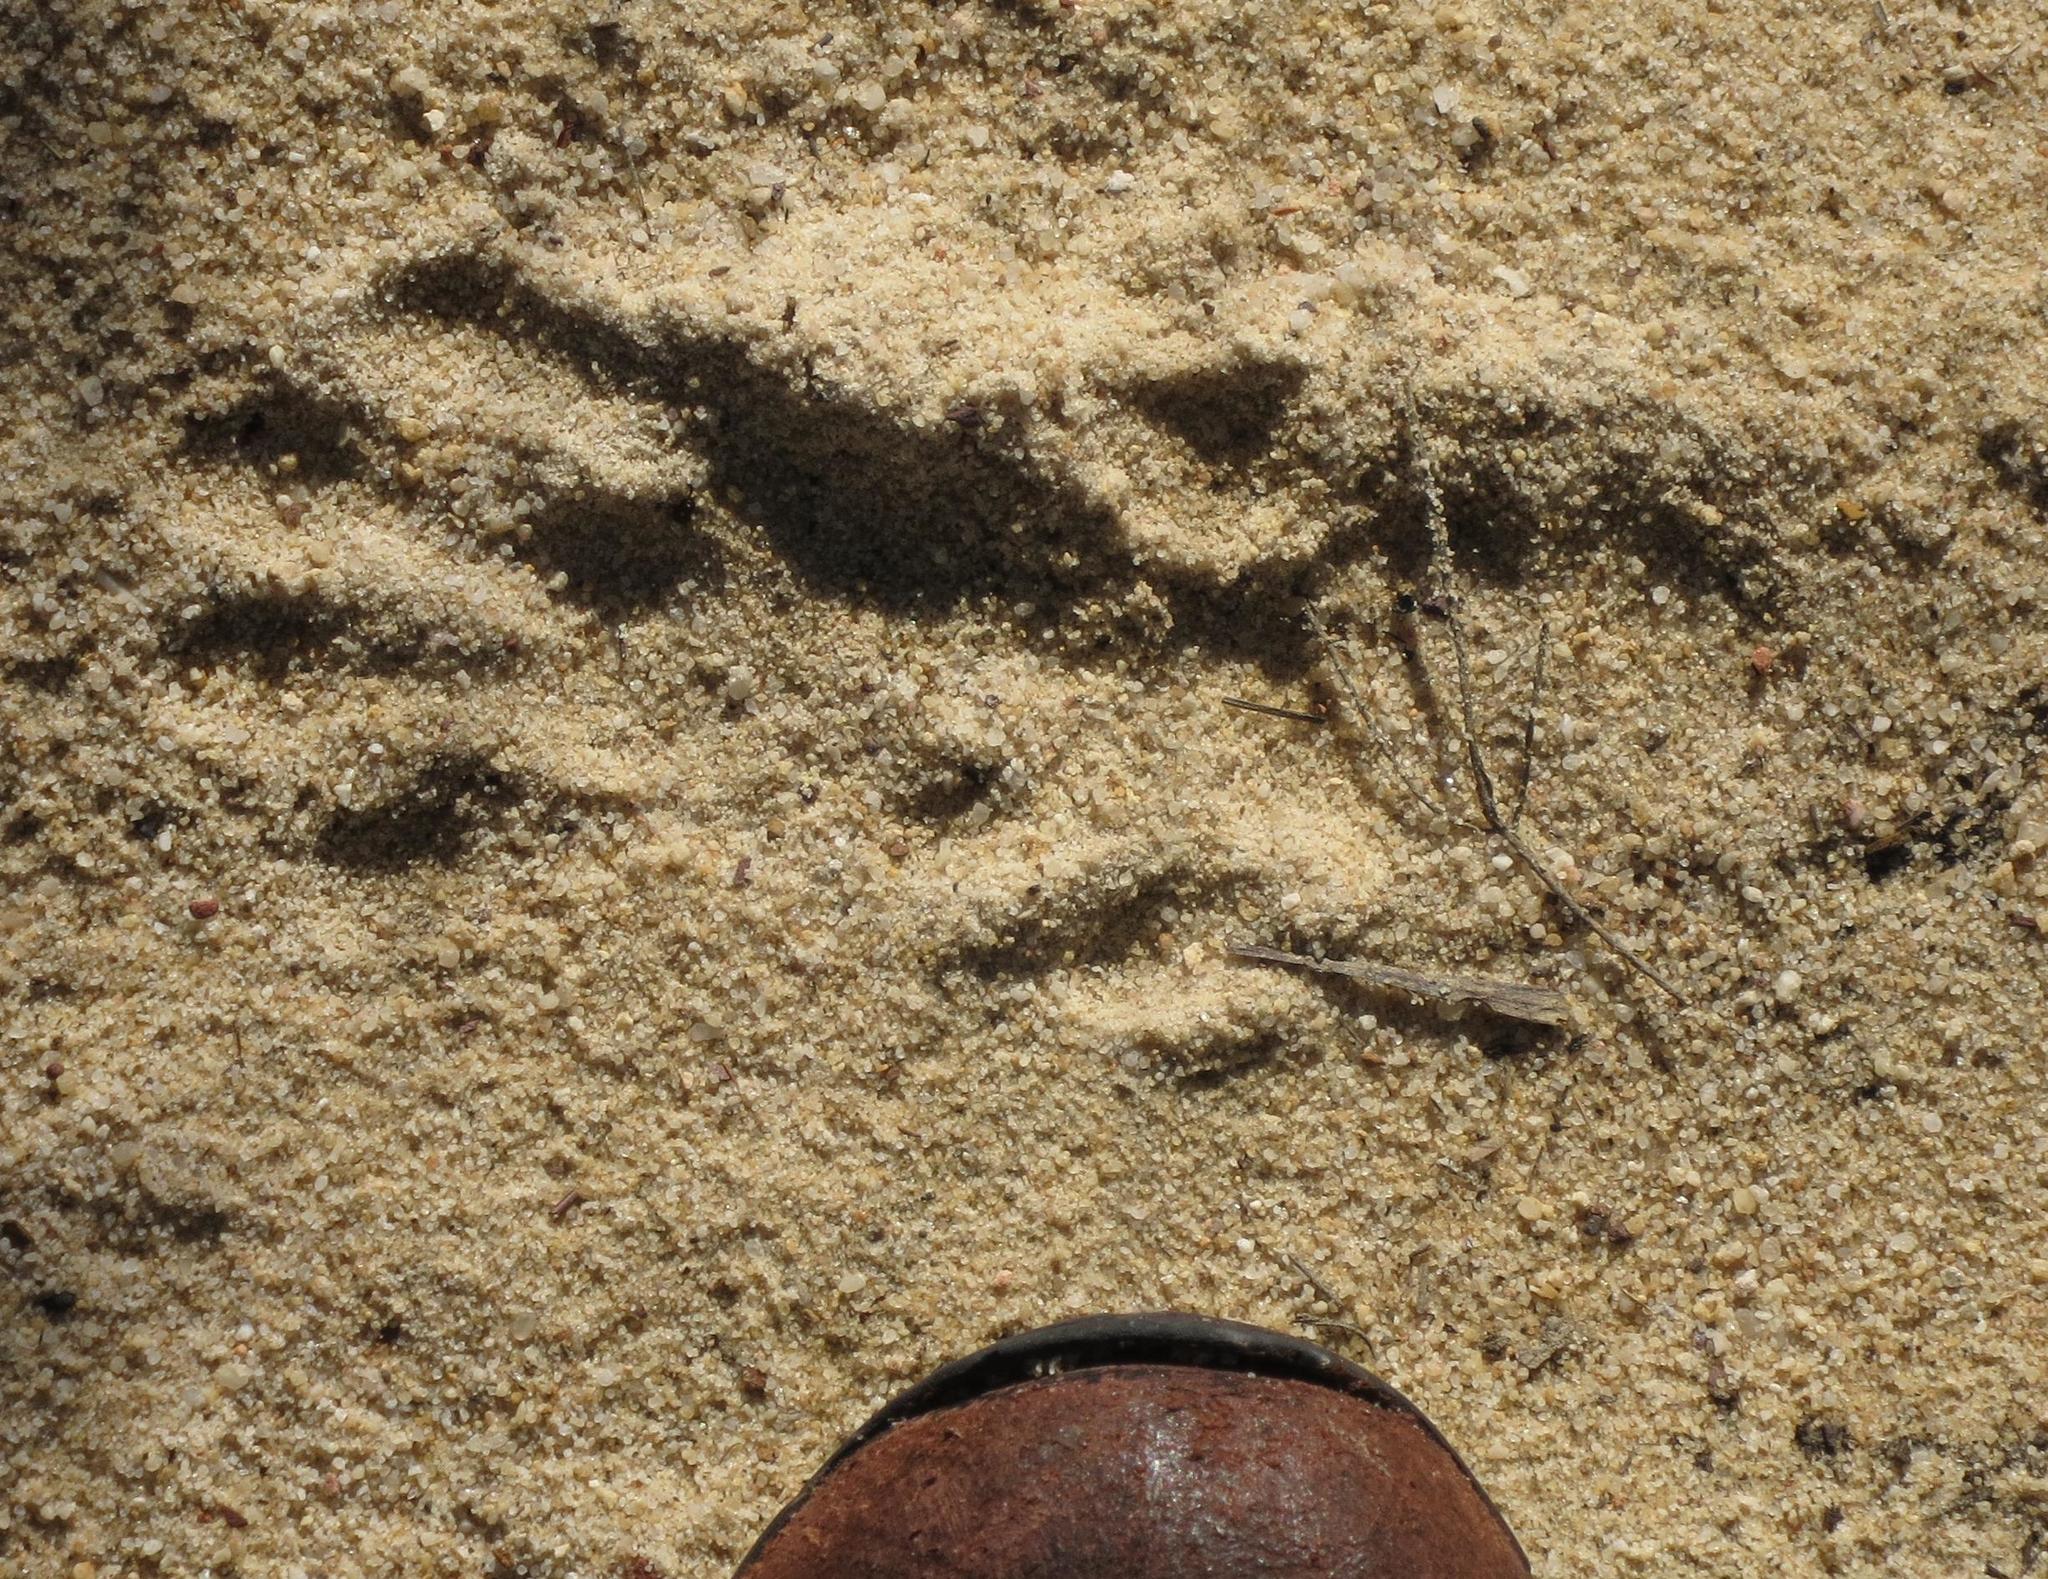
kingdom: Animalia
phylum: Chordata
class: Mammalia
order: Carnivora
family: Mustelidae
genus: Aonyx
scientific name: Aonyx capensis
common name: African clawless otter
